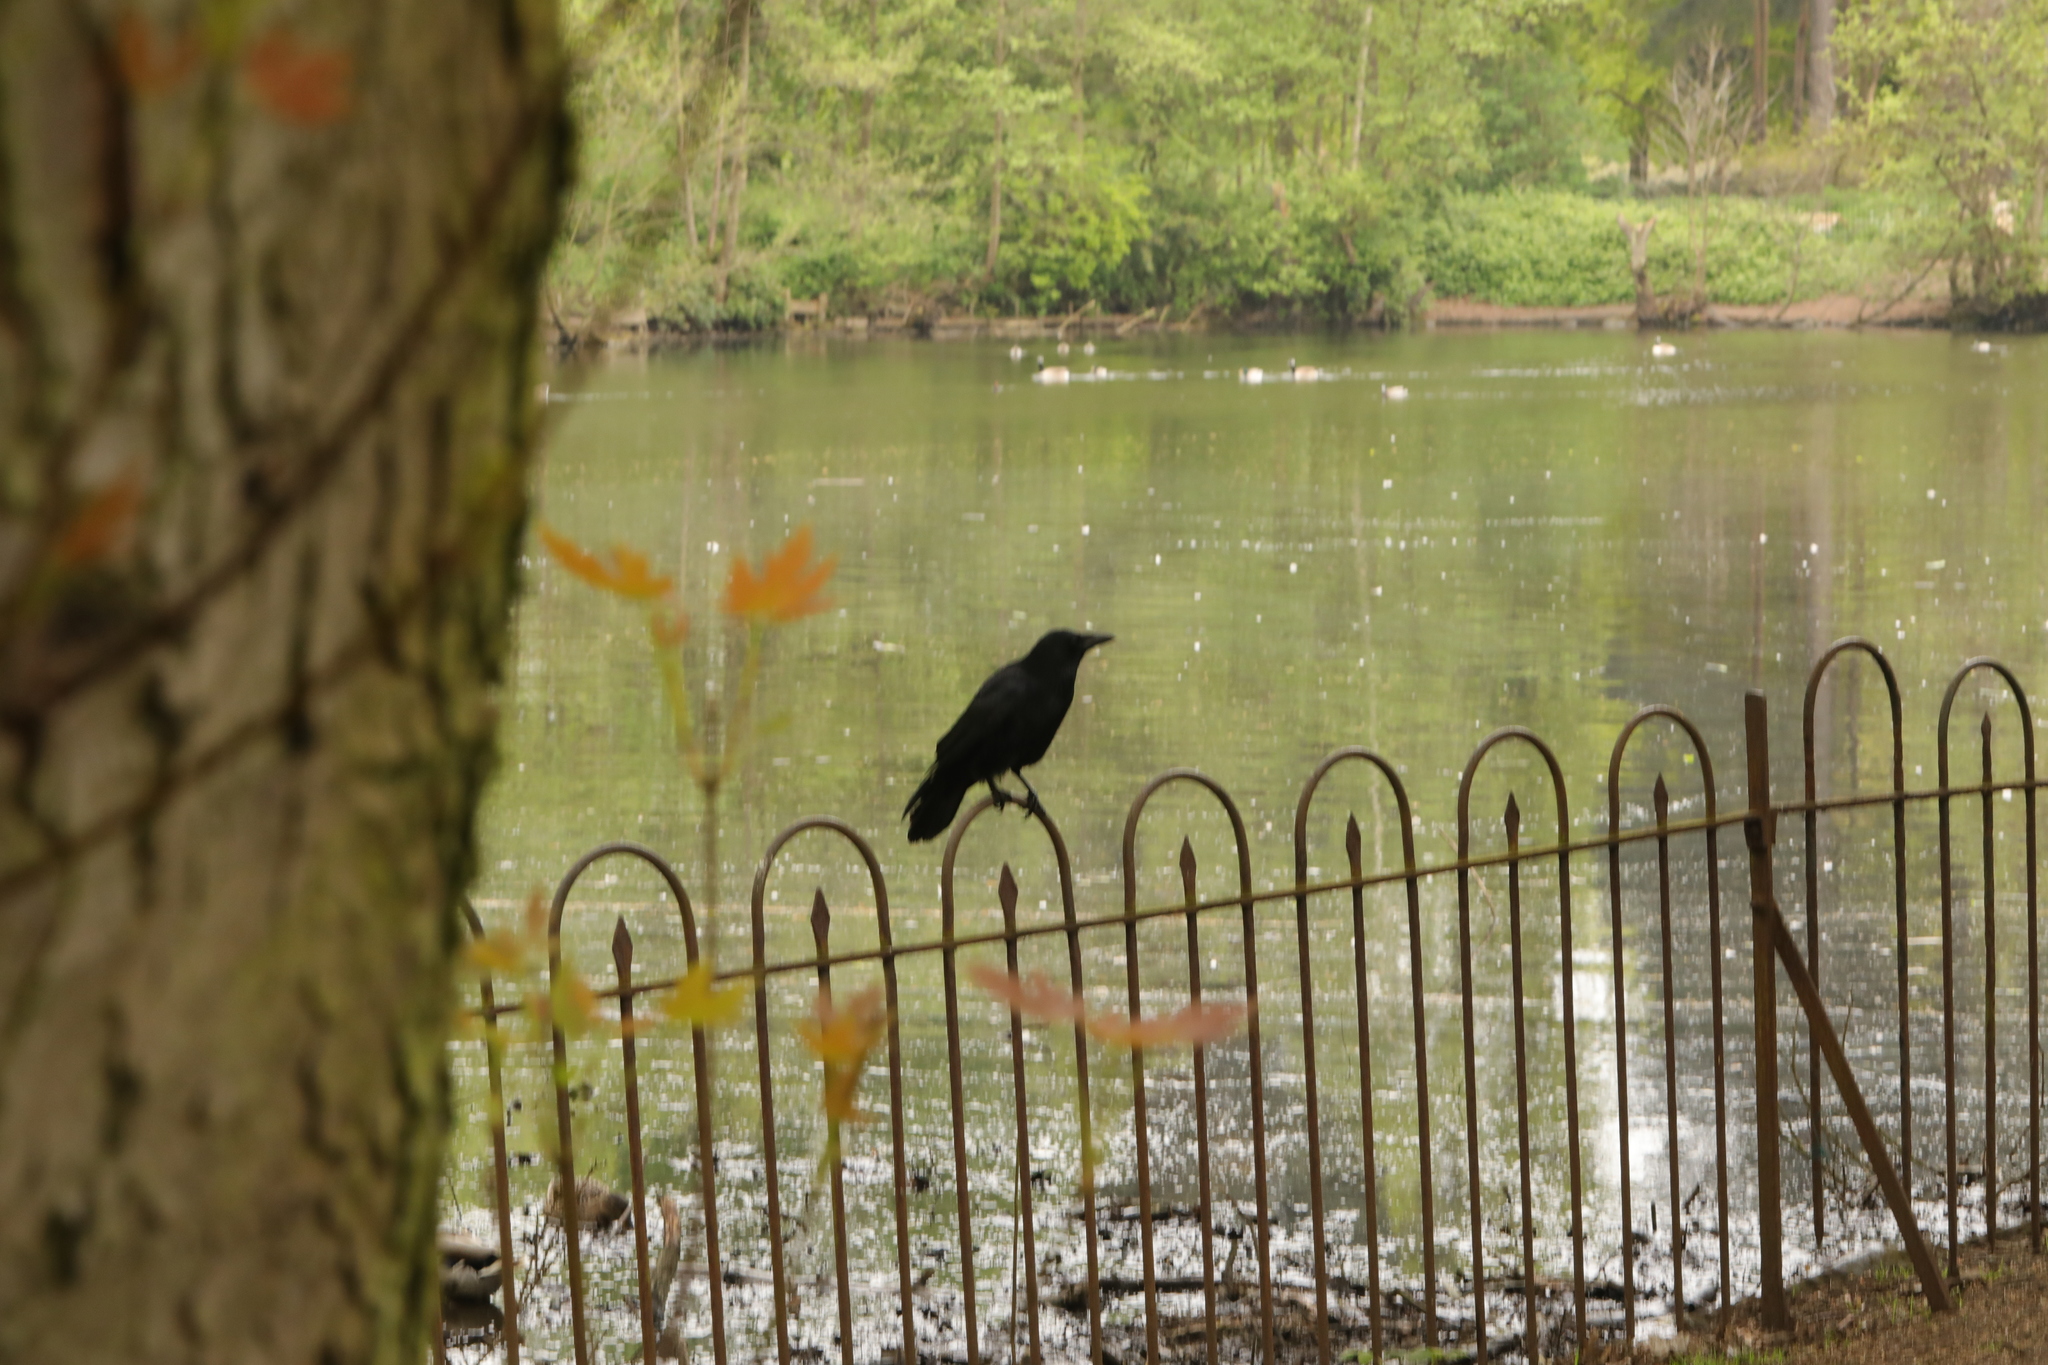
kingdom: Animalia
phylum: Chordata
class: Aves
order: Passeriformes
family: Corvidae
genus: Corvus
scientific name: Corvus corone
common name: Carrion crow
